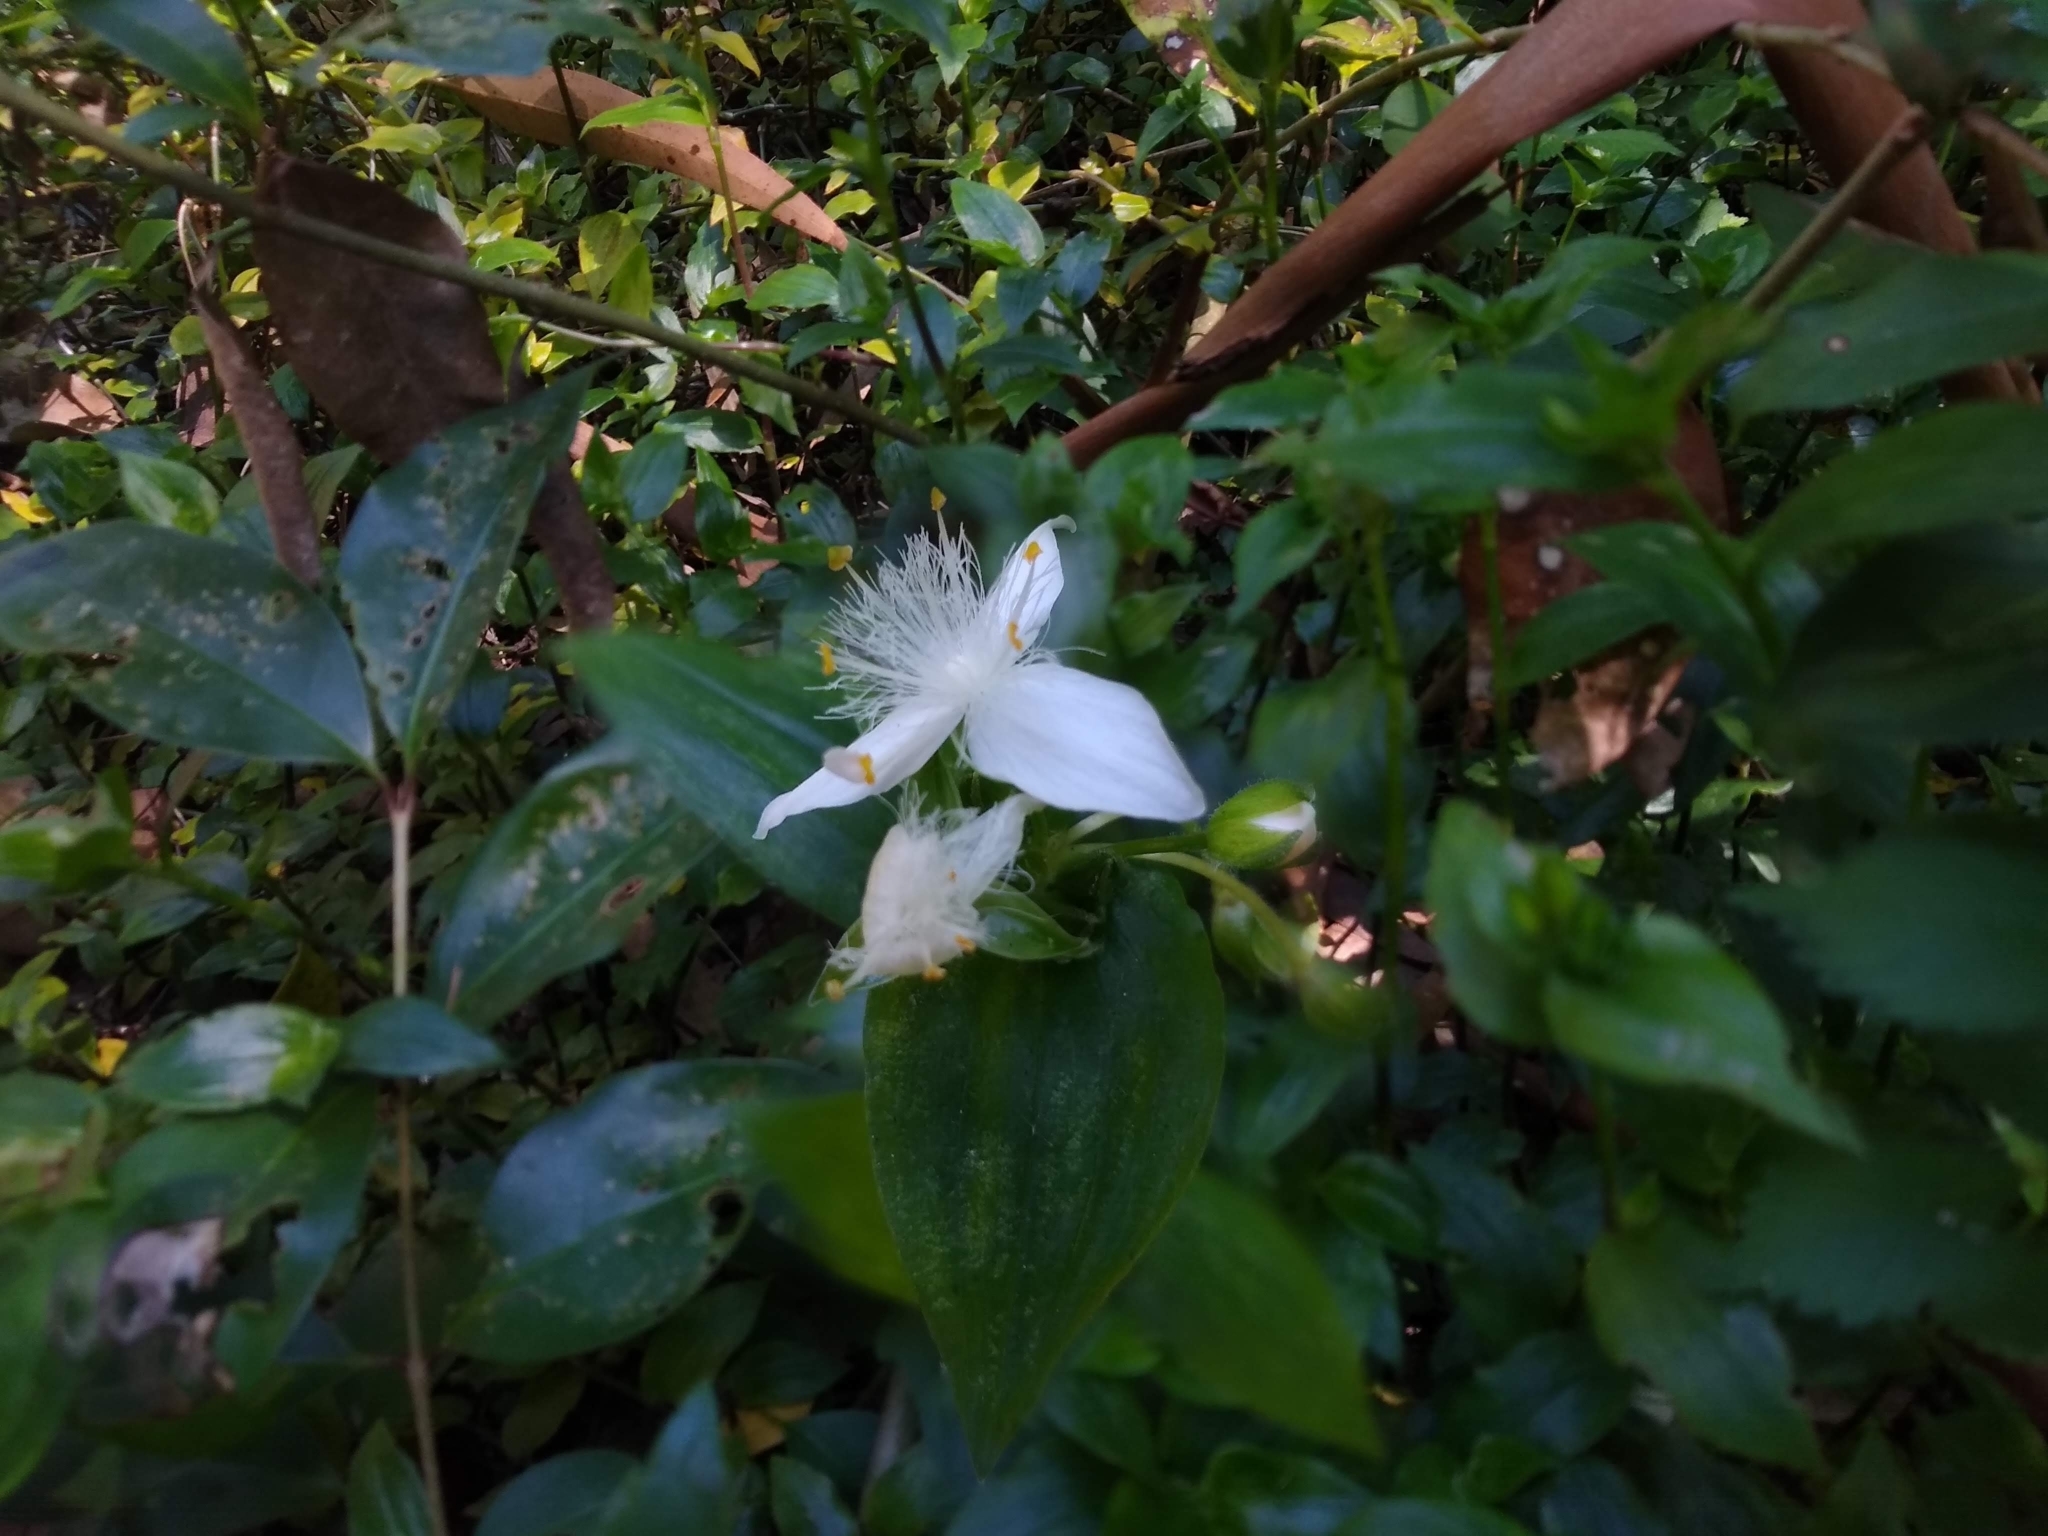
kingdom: Plantae
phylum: Tracheophyta
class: Liliopsida
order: Commelinales
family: Commelinaceae
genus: Tradescantia
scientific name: Tradescantia fluminensis
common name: Wandering-jew
